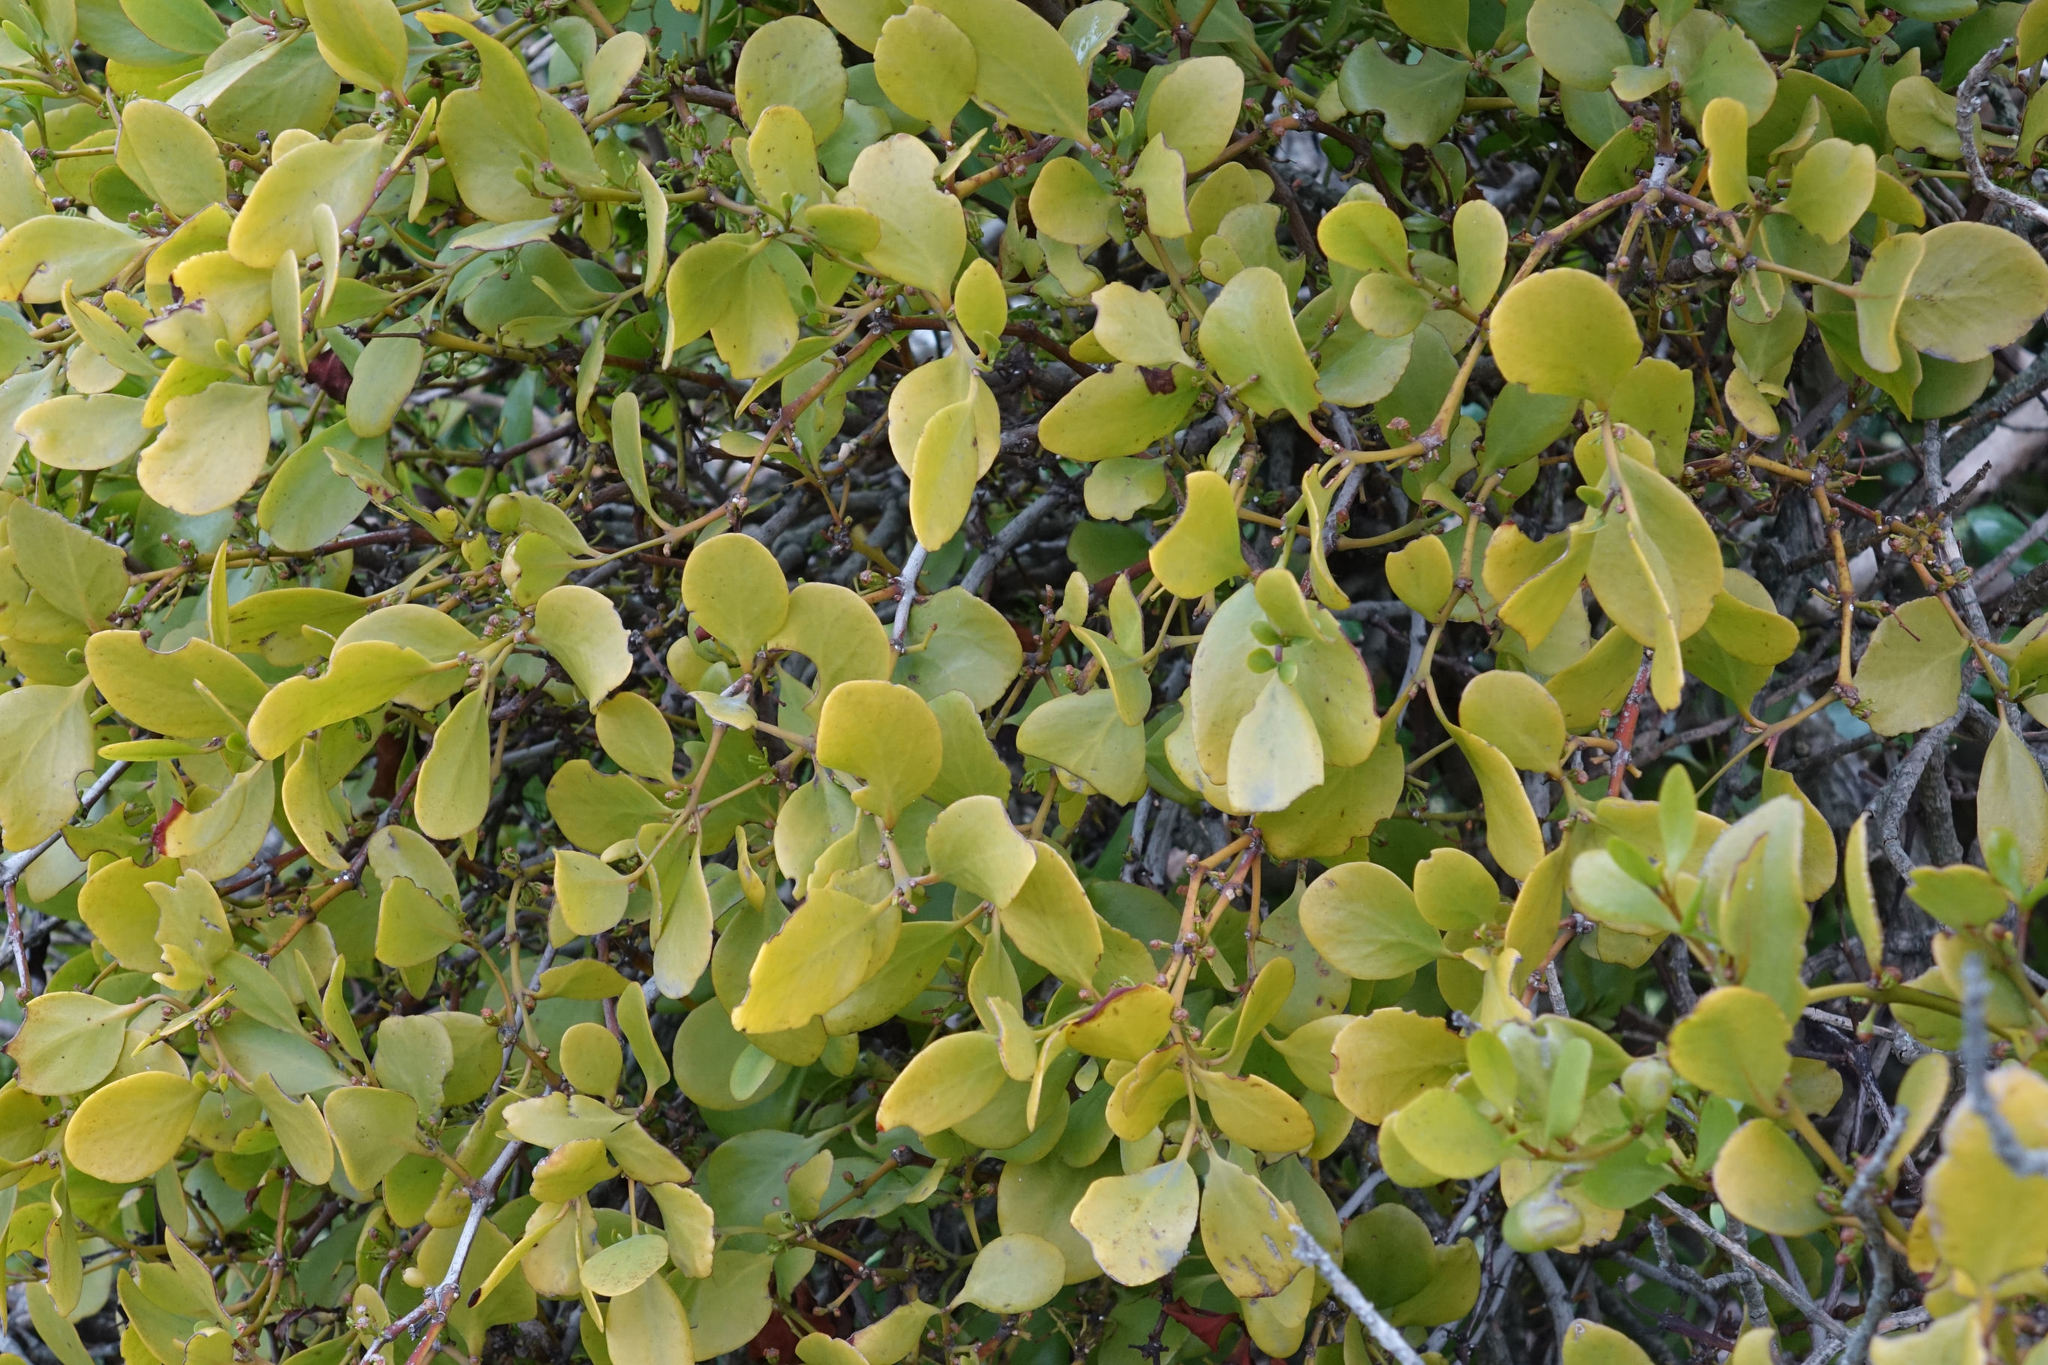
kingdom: Plantae
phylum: Tracheophyta
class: Magnoliopsida
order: Santalales
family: Loranthaceae
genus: Ileostylus
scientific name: Ileostylus micranthus
